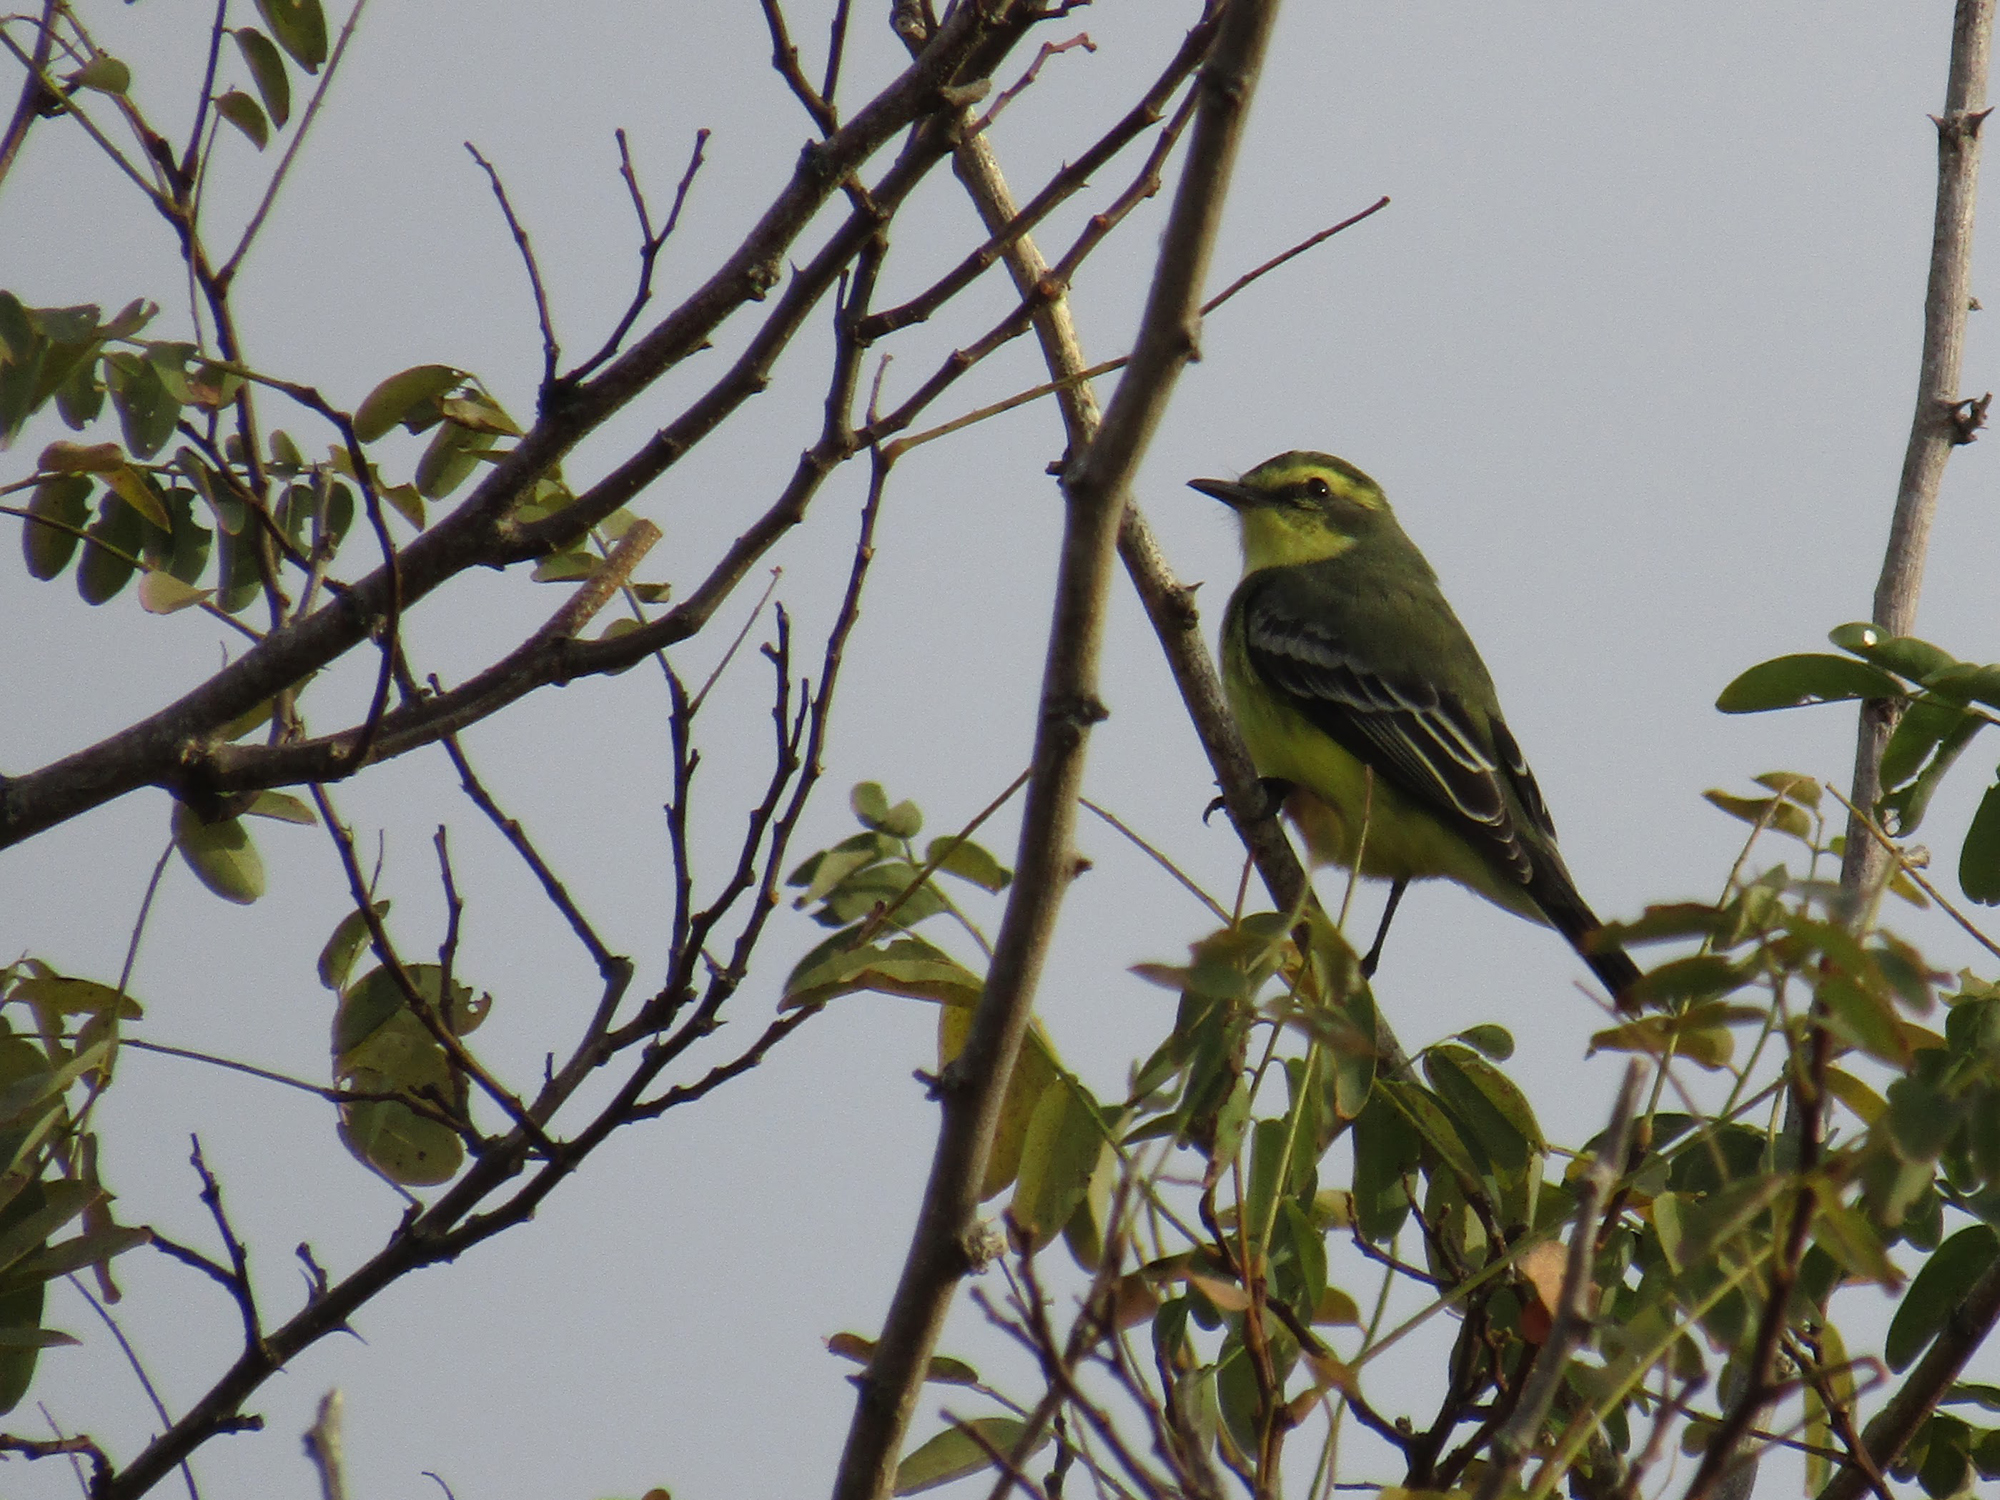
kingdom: Animalia
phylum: Chordata
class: Aves
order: Passeriformes
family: Tyrannidae
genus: Satrapa
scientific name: Satrapa icterophrys
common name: Yellow-browed tyrant
